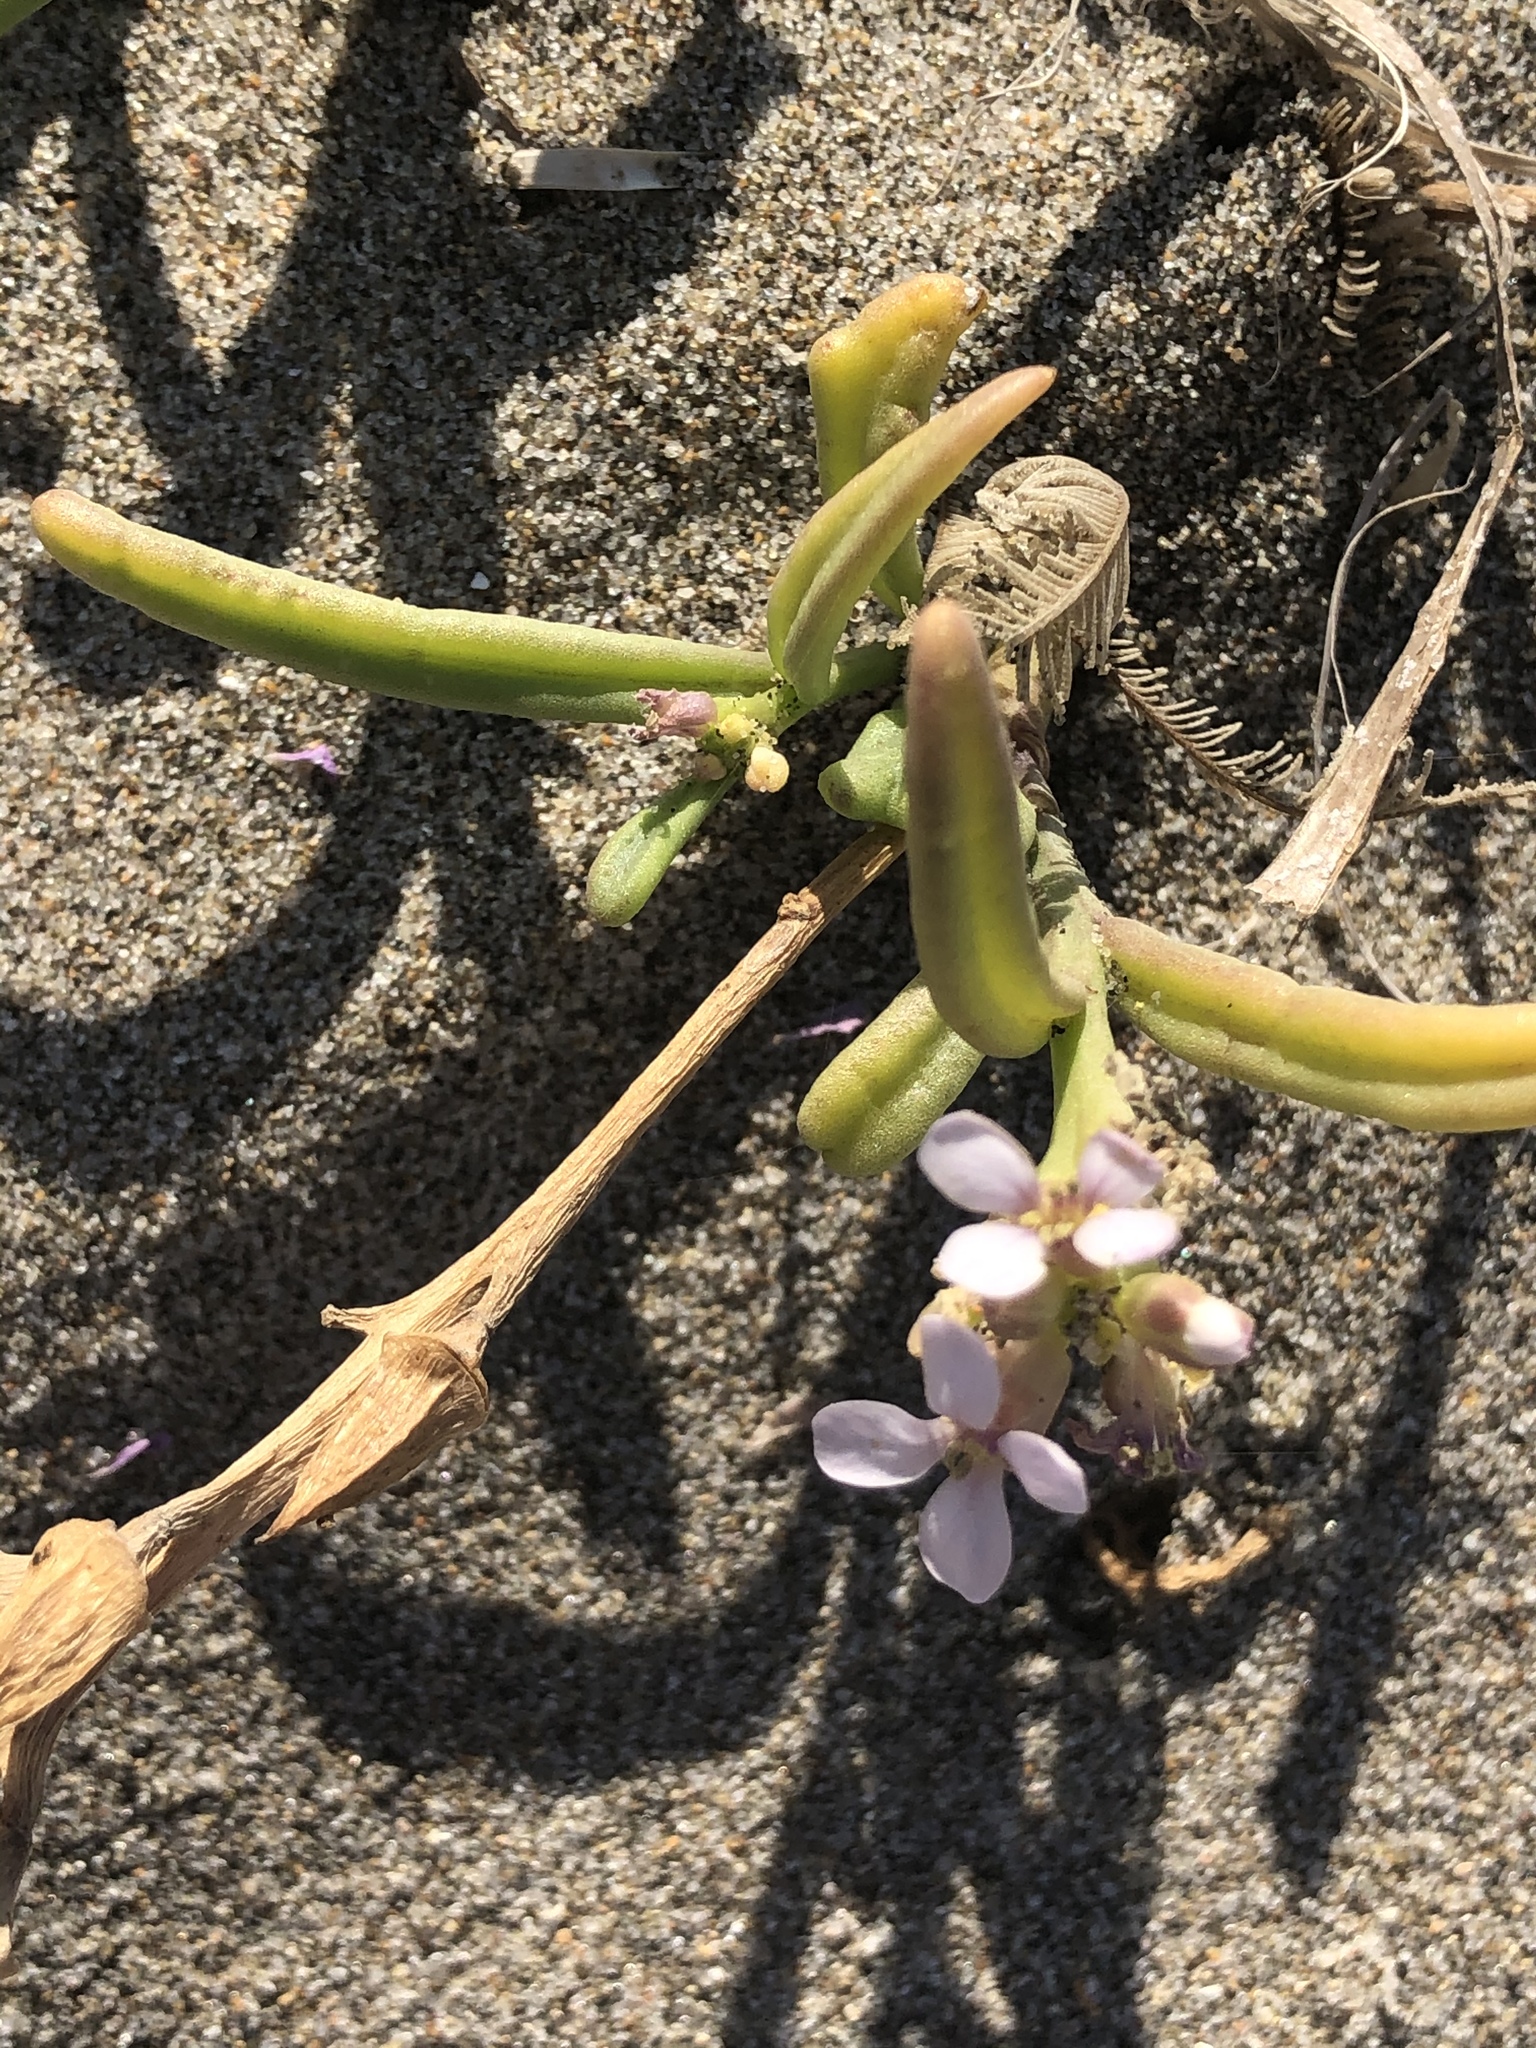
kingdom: Plantae
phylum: Tracheophyta
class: Magnoliopsida
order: Brassicales
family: Brassicaceae
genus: Cakile
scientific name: Cakile maritima
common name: Sea rocket
